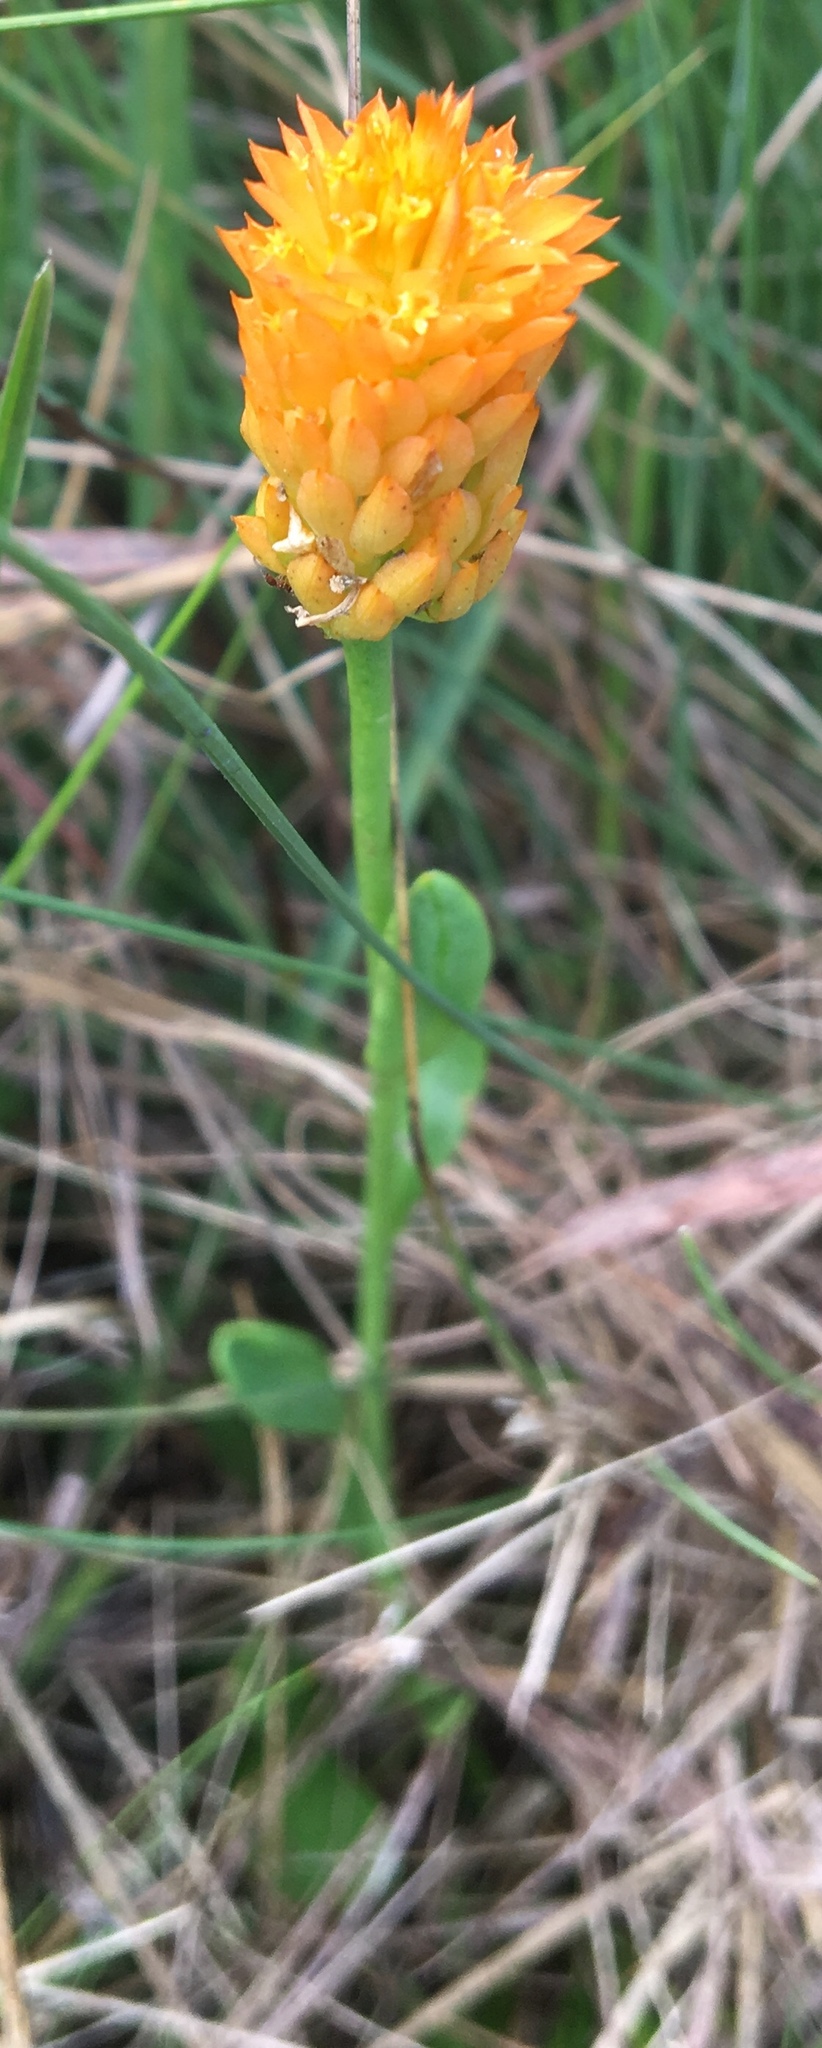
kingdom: Plantae
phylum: Tracheophyta
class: Magnoliopsida
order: Fabales
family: Polygalaceae
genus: Polygala
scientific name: Polygala lutea
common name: Orange milkwort
